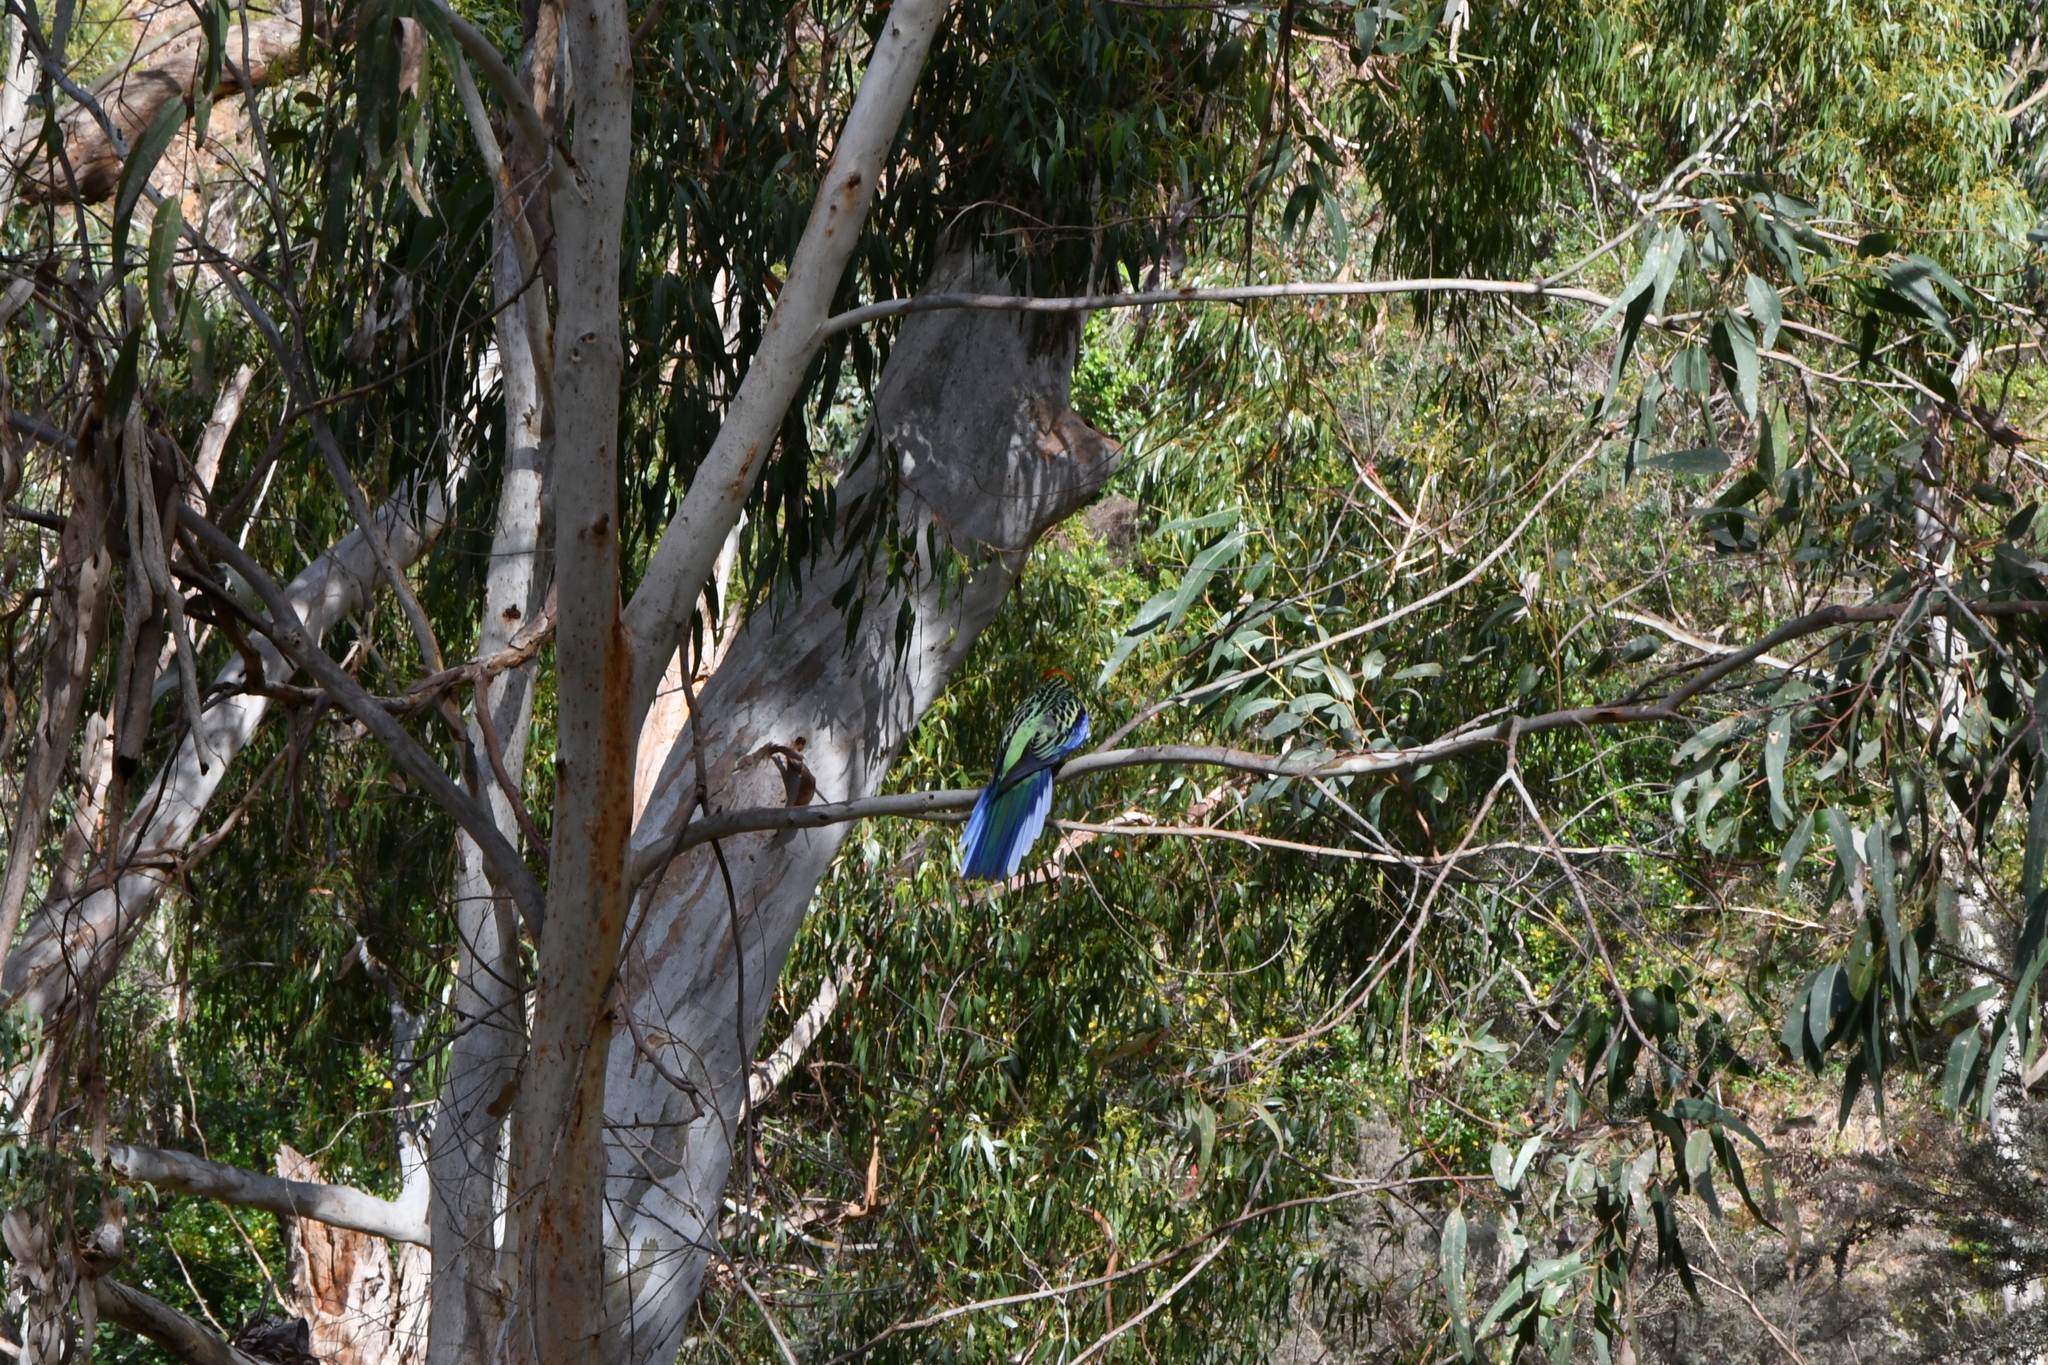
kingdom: Animalia
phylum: Chordata
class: Aves
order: Psittaciformes
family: Psittacidae
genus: Platycercus
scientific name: Platycercus eximius
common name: Eastern rosella
